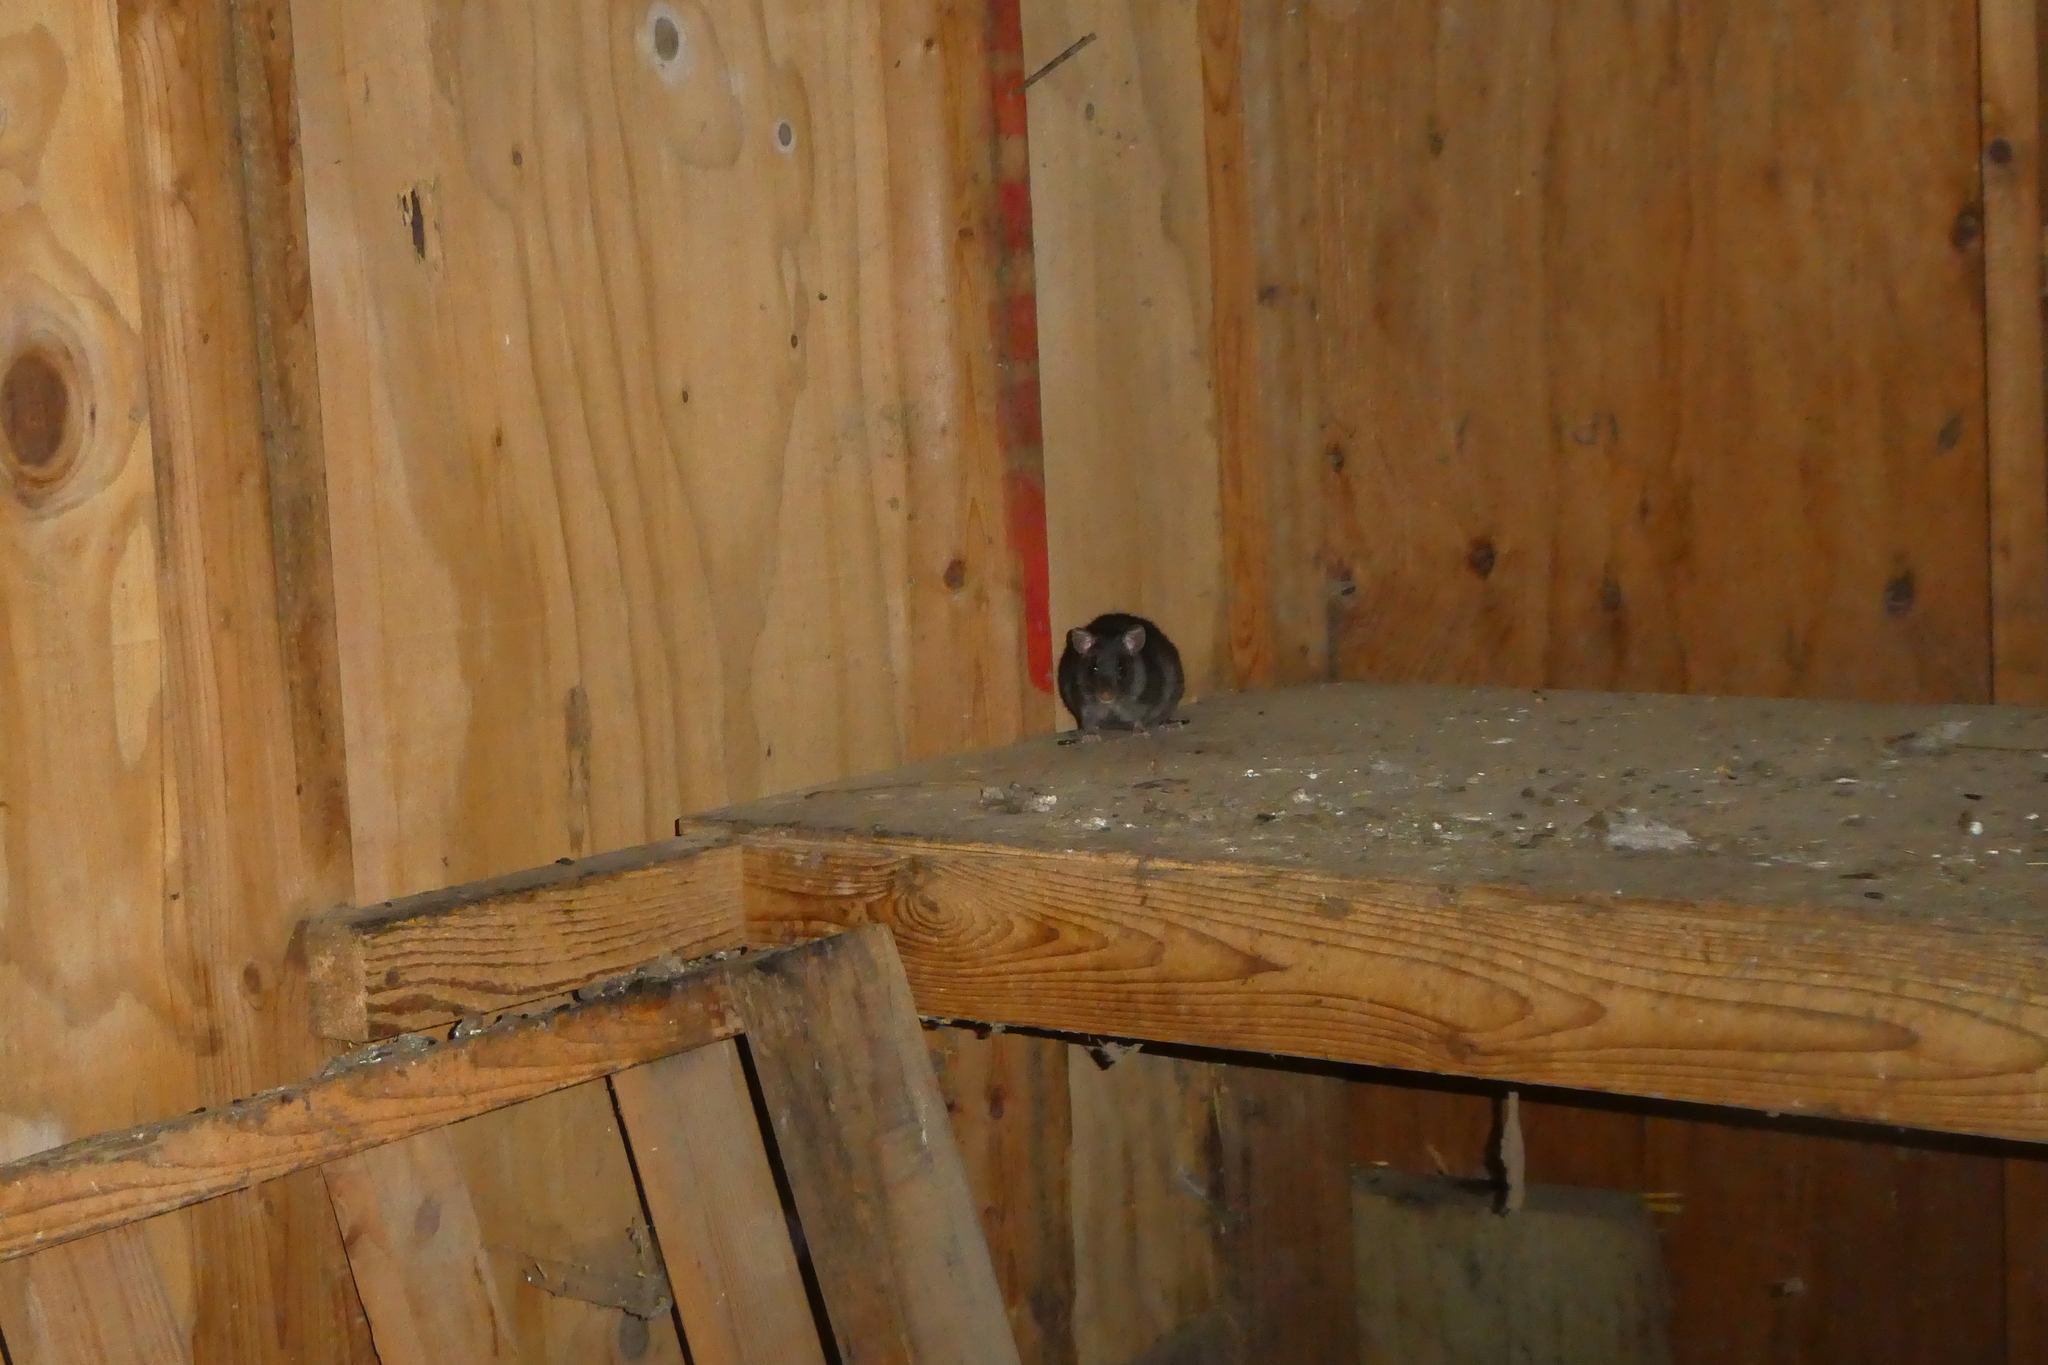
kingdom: Animalia
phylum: Chordata
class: Mammalia
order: Rodentia
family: Muridae
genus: Rattus
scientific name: Rattus rattus
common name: Black rat
